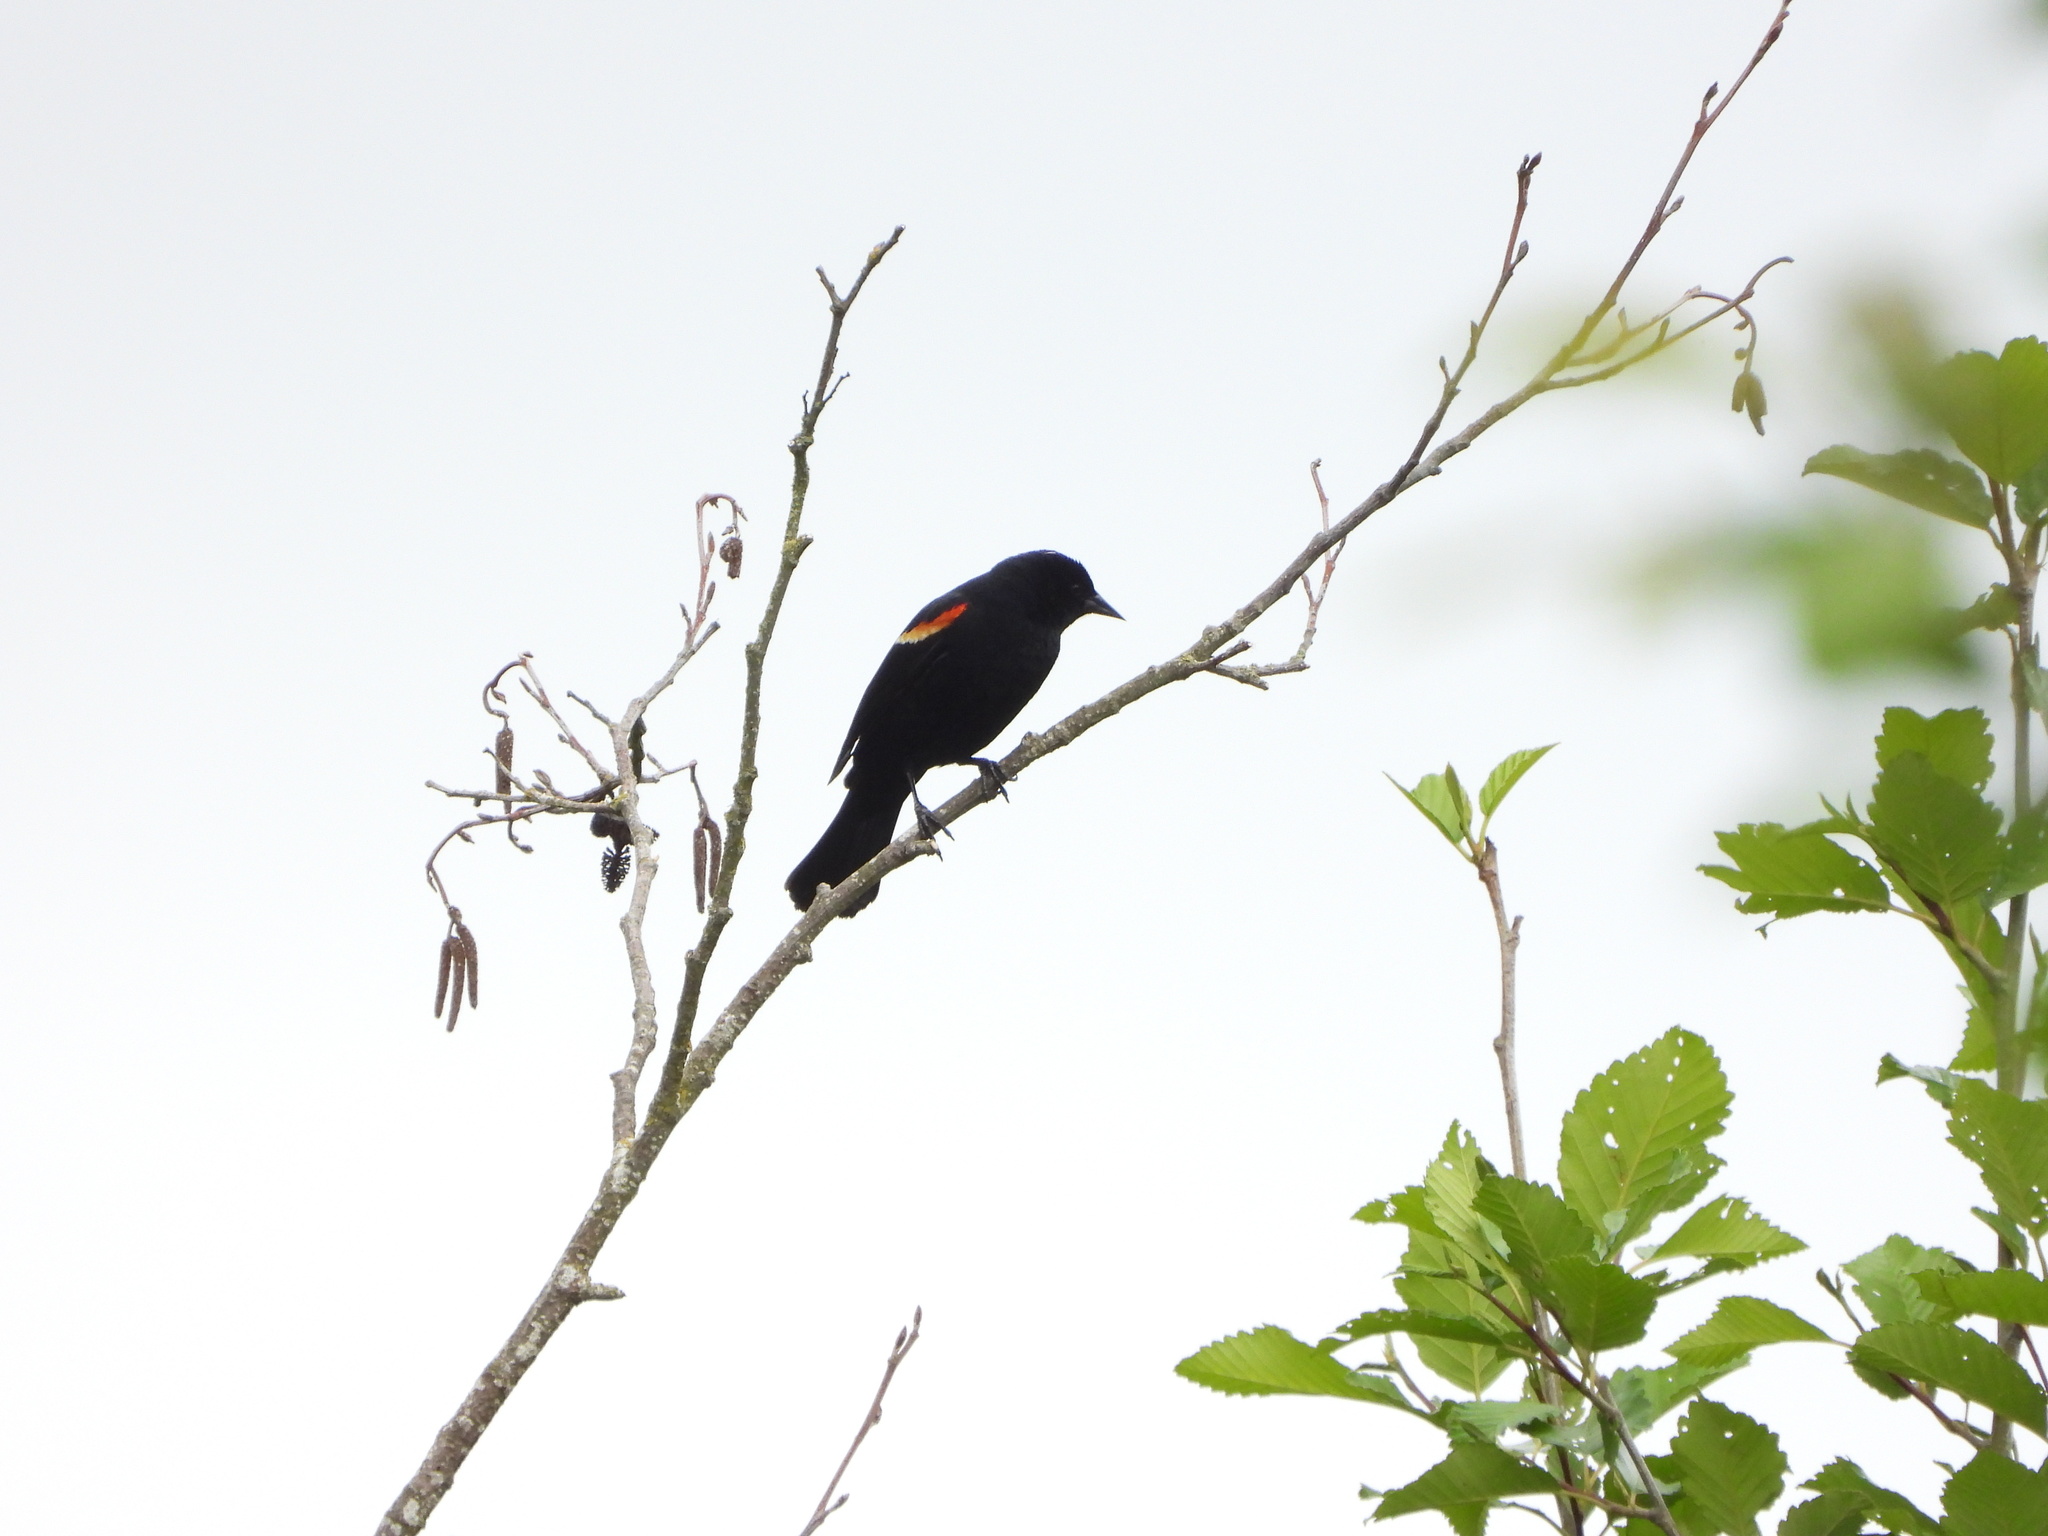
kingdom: Animalia
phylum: Chordata
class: Aves
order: Passeriformes
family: Icteridae
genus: Agelaius
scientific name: Agelaius phoeniceus
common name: Red-winged blackbird
